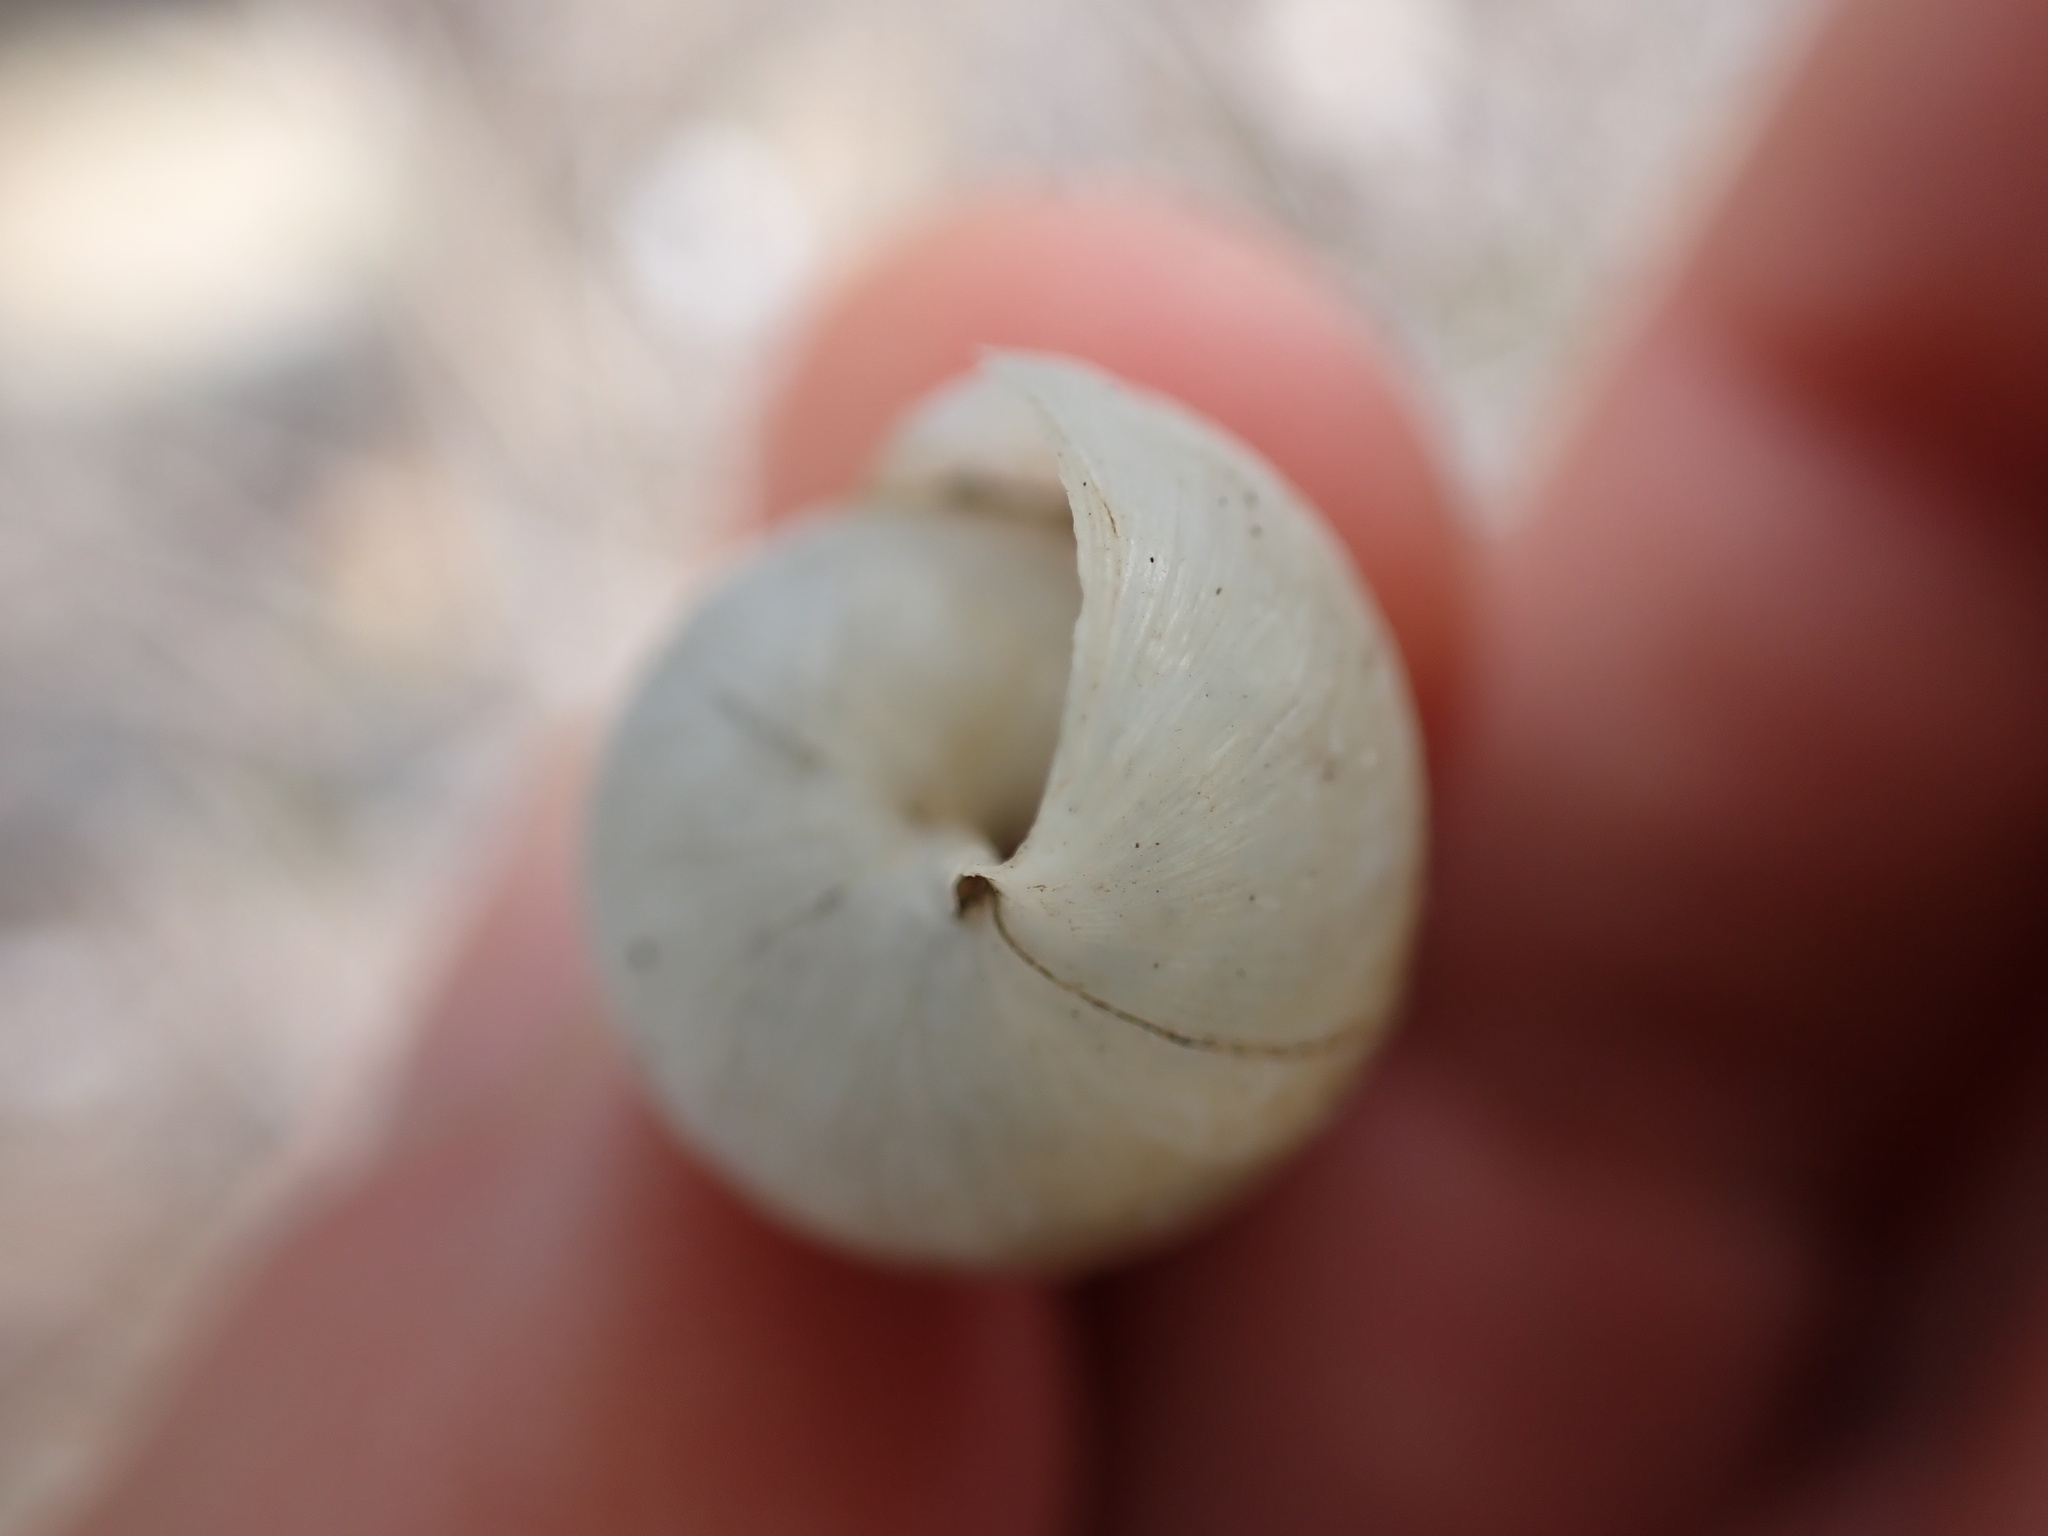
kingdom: Animalia
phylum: Mollusca
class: Gastropoda
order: Stylommatophora
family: Achatinidae
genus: Rumina
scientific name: Rumina decollata
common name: Decollate snail
